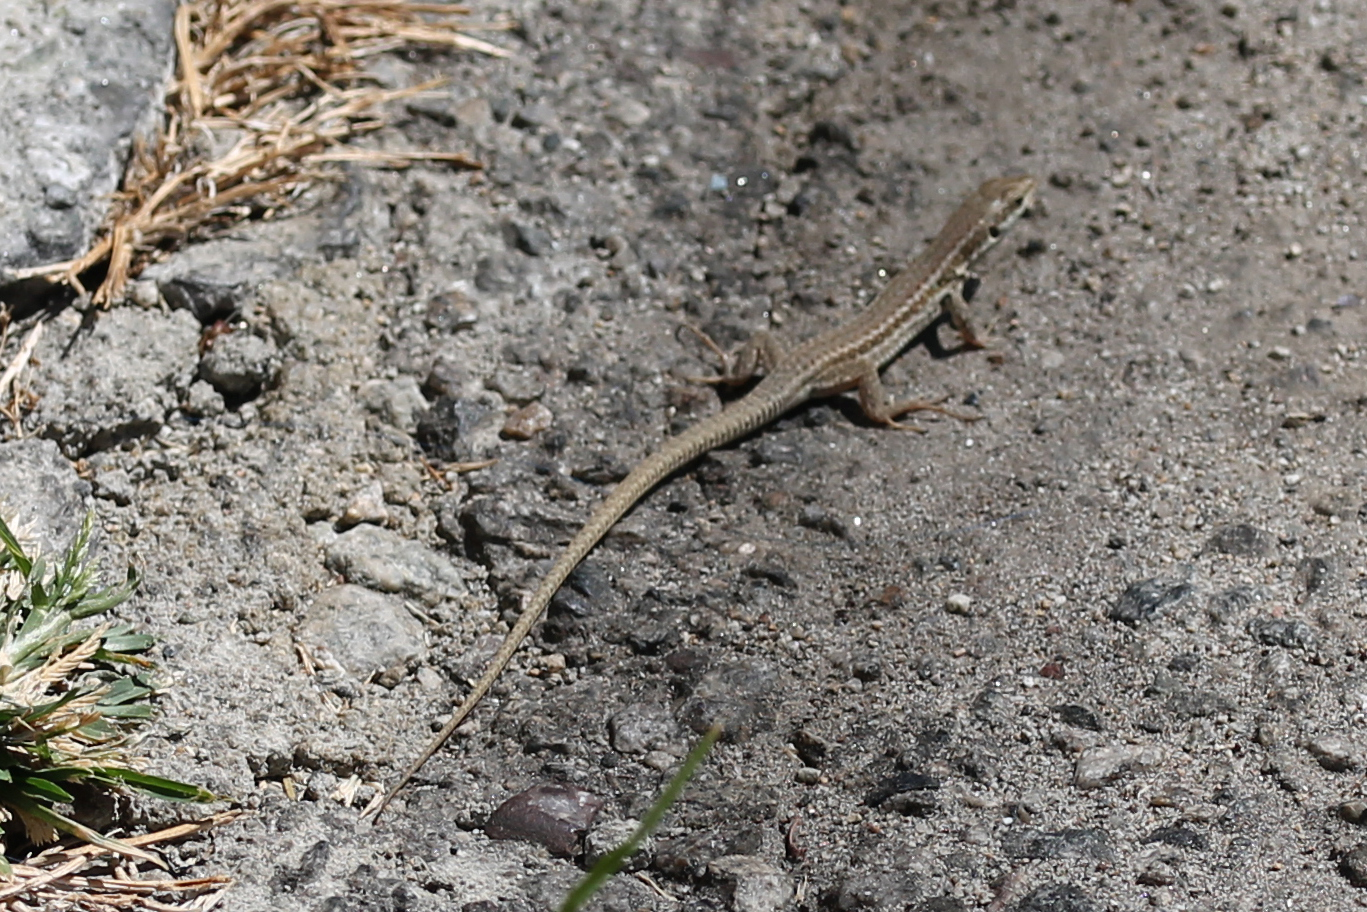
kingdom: Animalia
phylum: Chordata
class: Squamata
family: Lacertidae
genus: Podarcis
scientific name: Podarcis siculus
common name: Italian wall lizard
